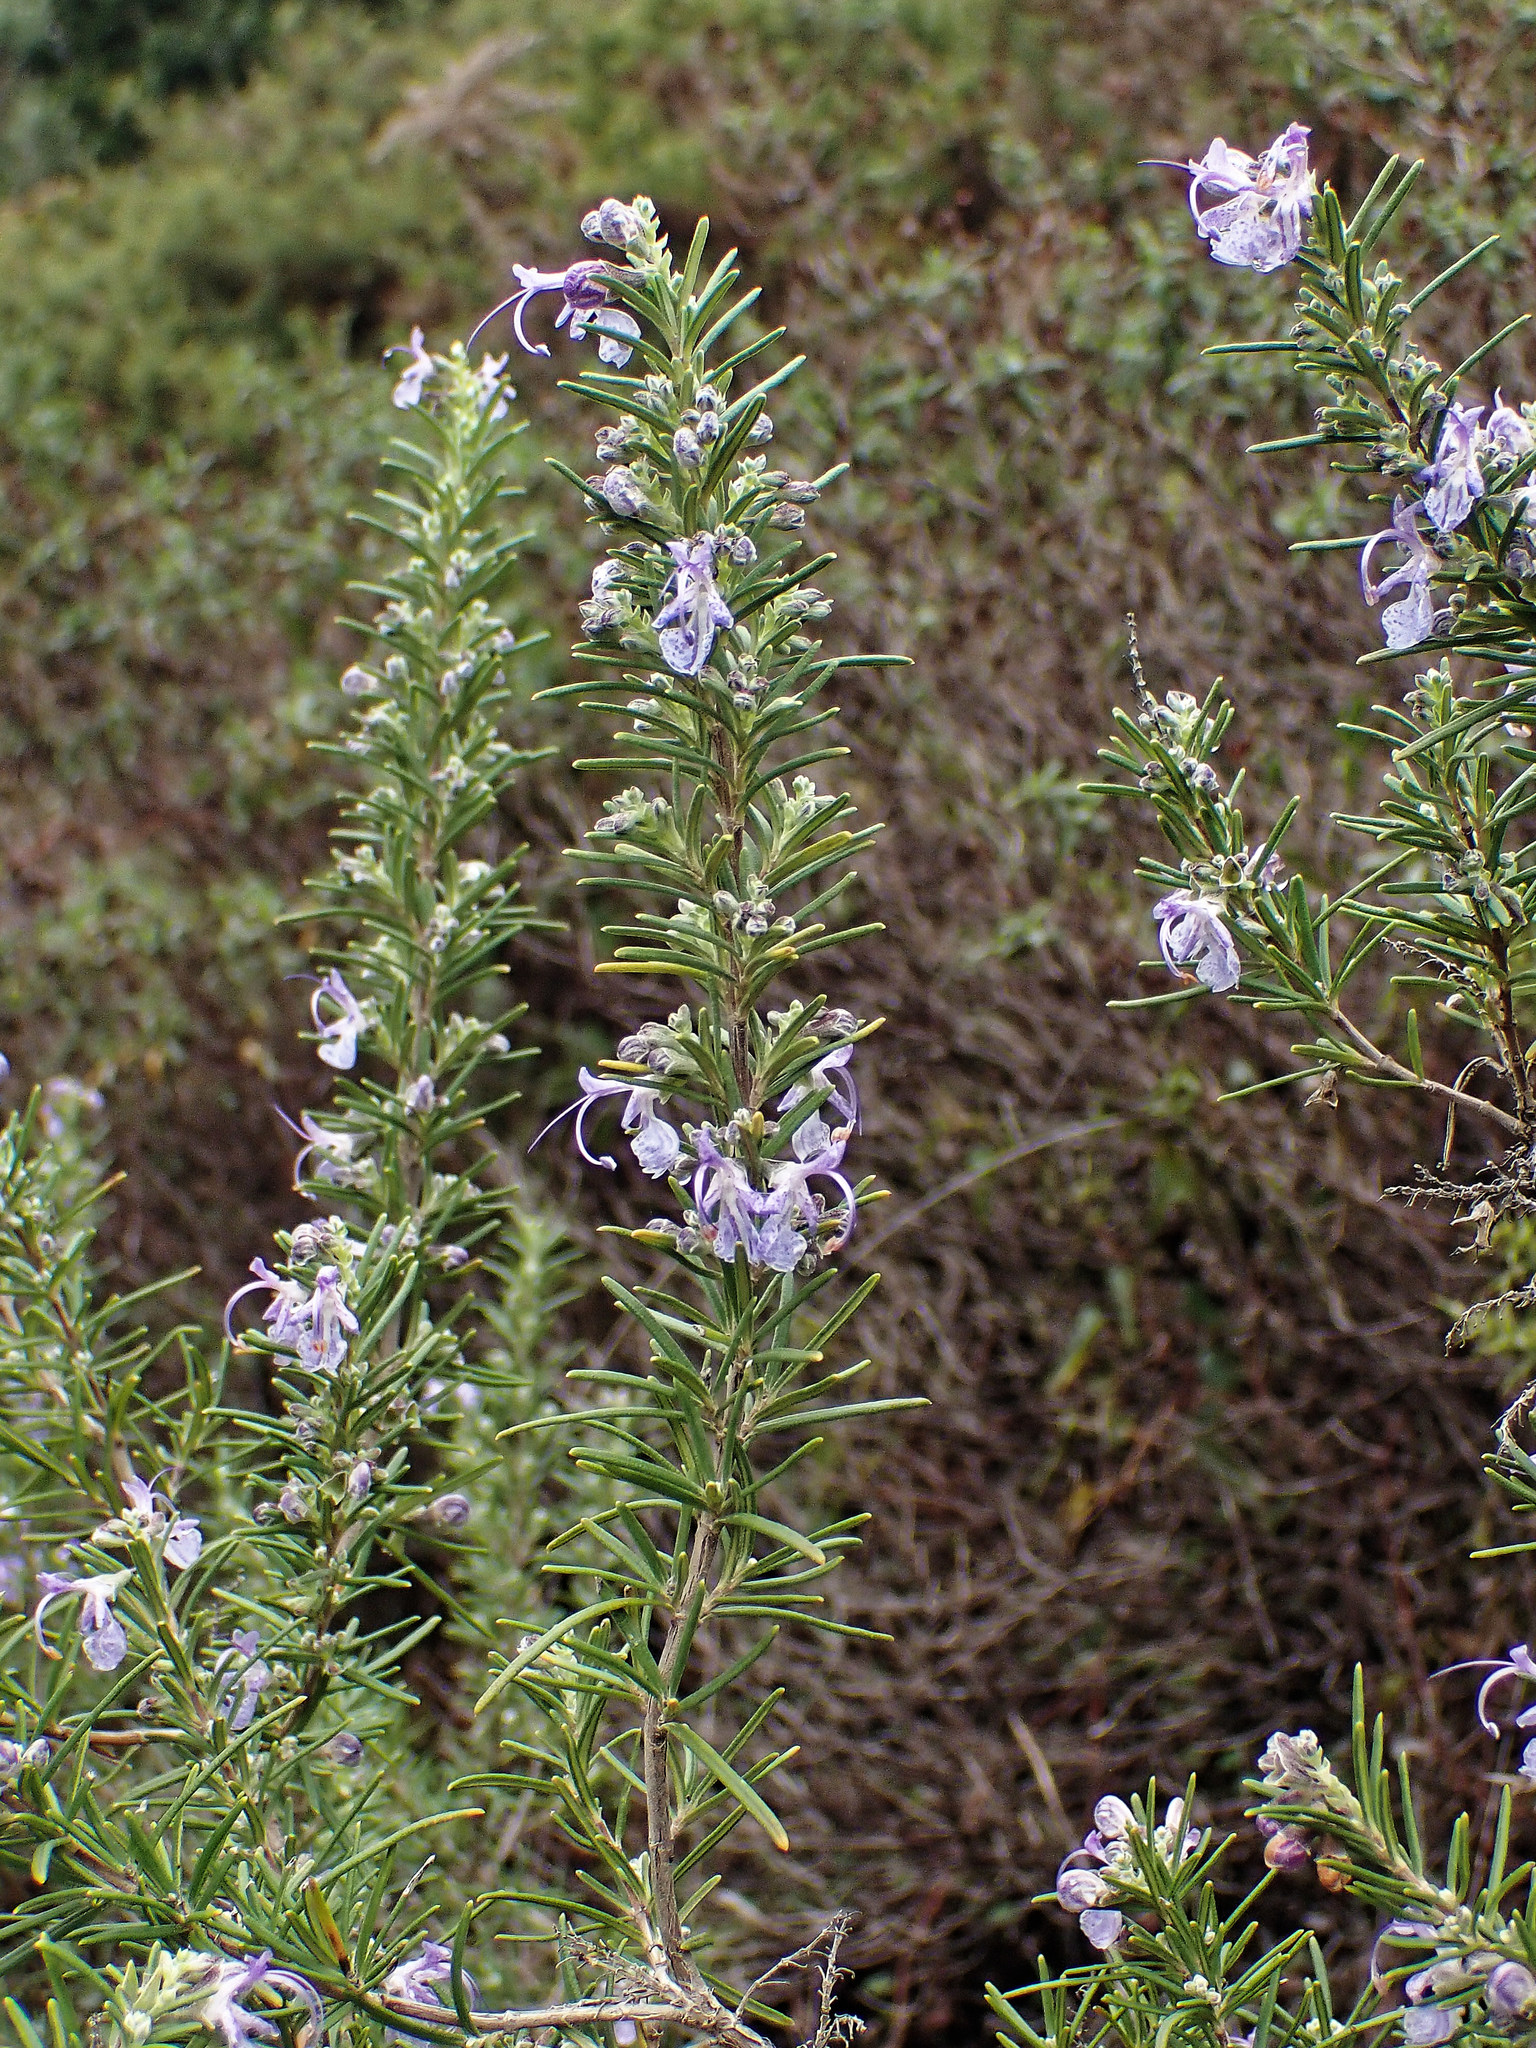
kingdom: Plantae
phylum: Tracheophyta
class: Magnoliopsida
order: Lamiales
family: Lamiaceae
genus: Salvia
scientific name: Salvia rosmarinus
